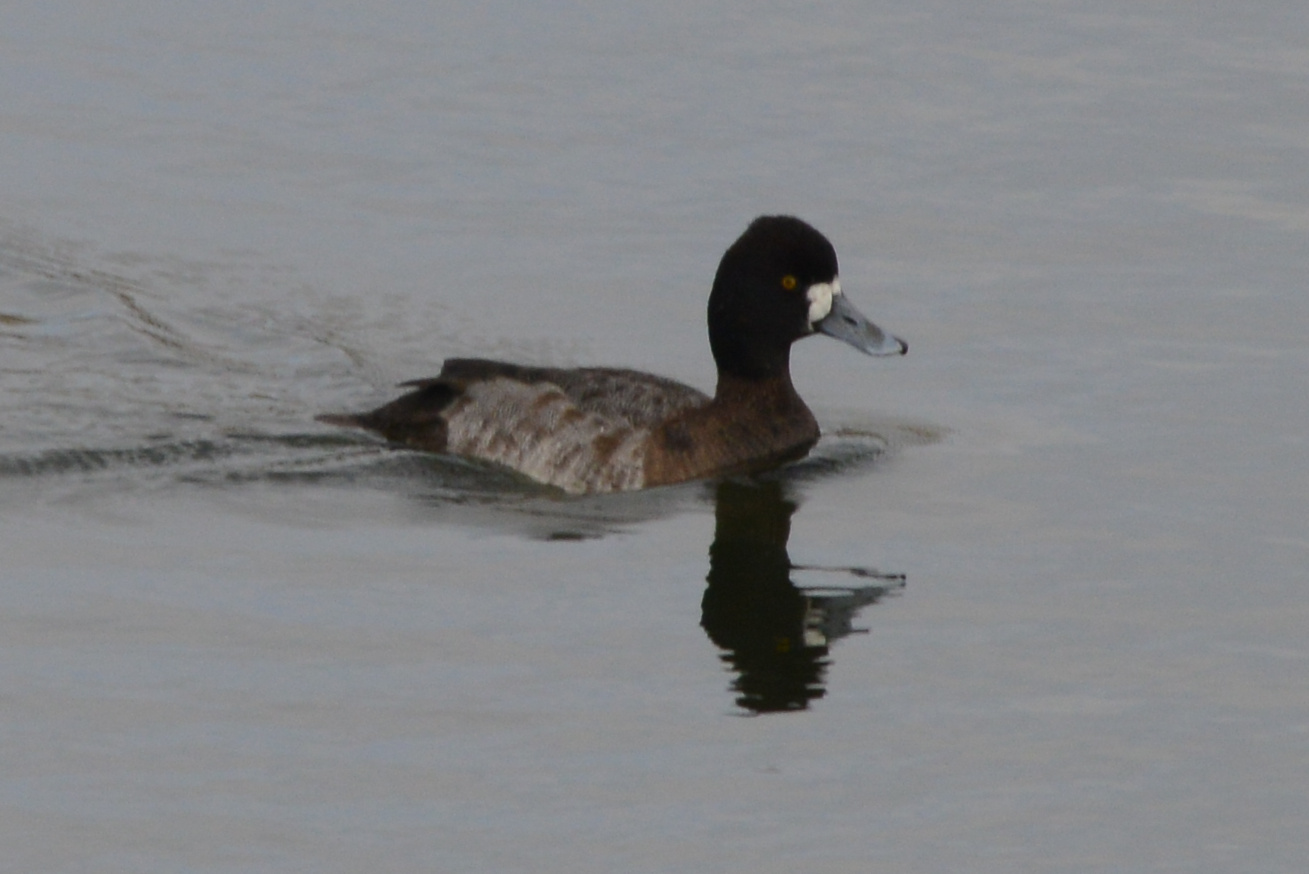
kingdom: Animalia
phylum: Chordata
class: Aves
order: Anseriformes
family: Anatidae
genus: Aythya
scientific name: Aythya affinis
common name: Lesser scaup
